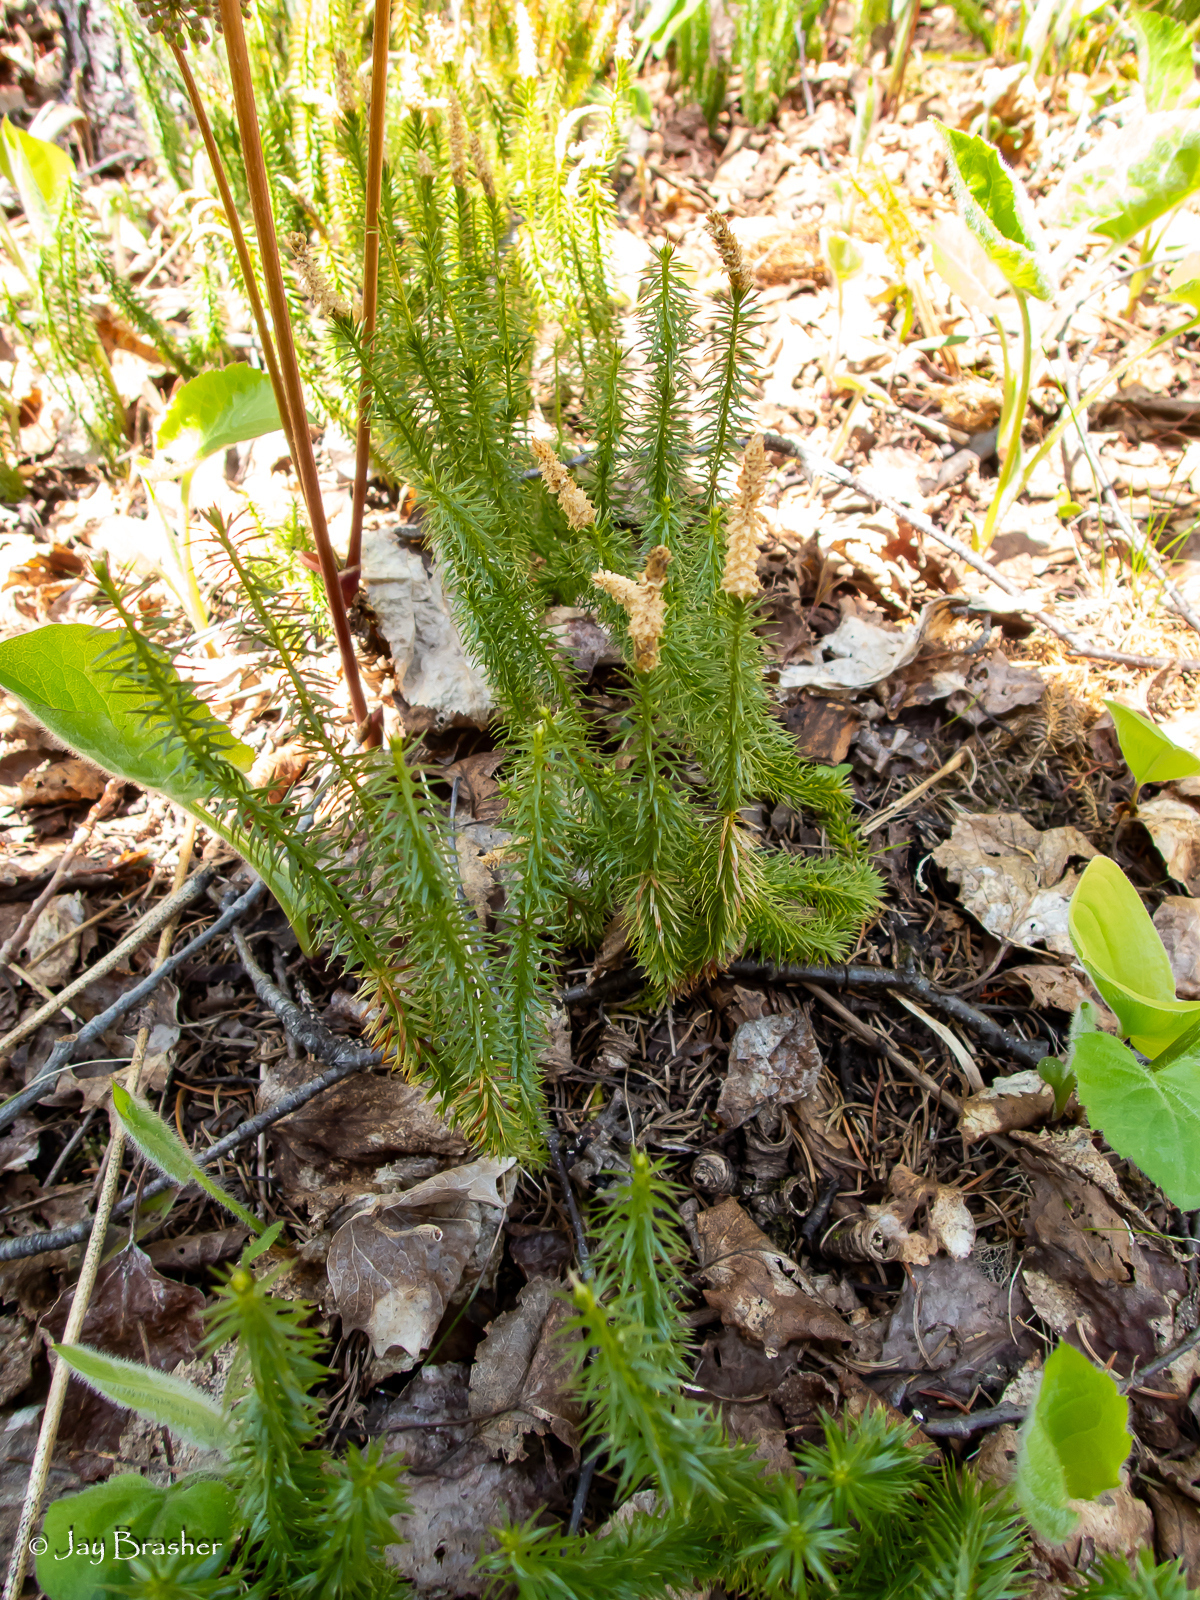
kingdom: Plantae
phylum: Tracheophyta
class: Lycopodiopsida
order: Lycopodiales
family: Lycopodiaceae
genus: Spinulum
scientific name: Spinulum annotinum
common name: Interrupted club-moss
